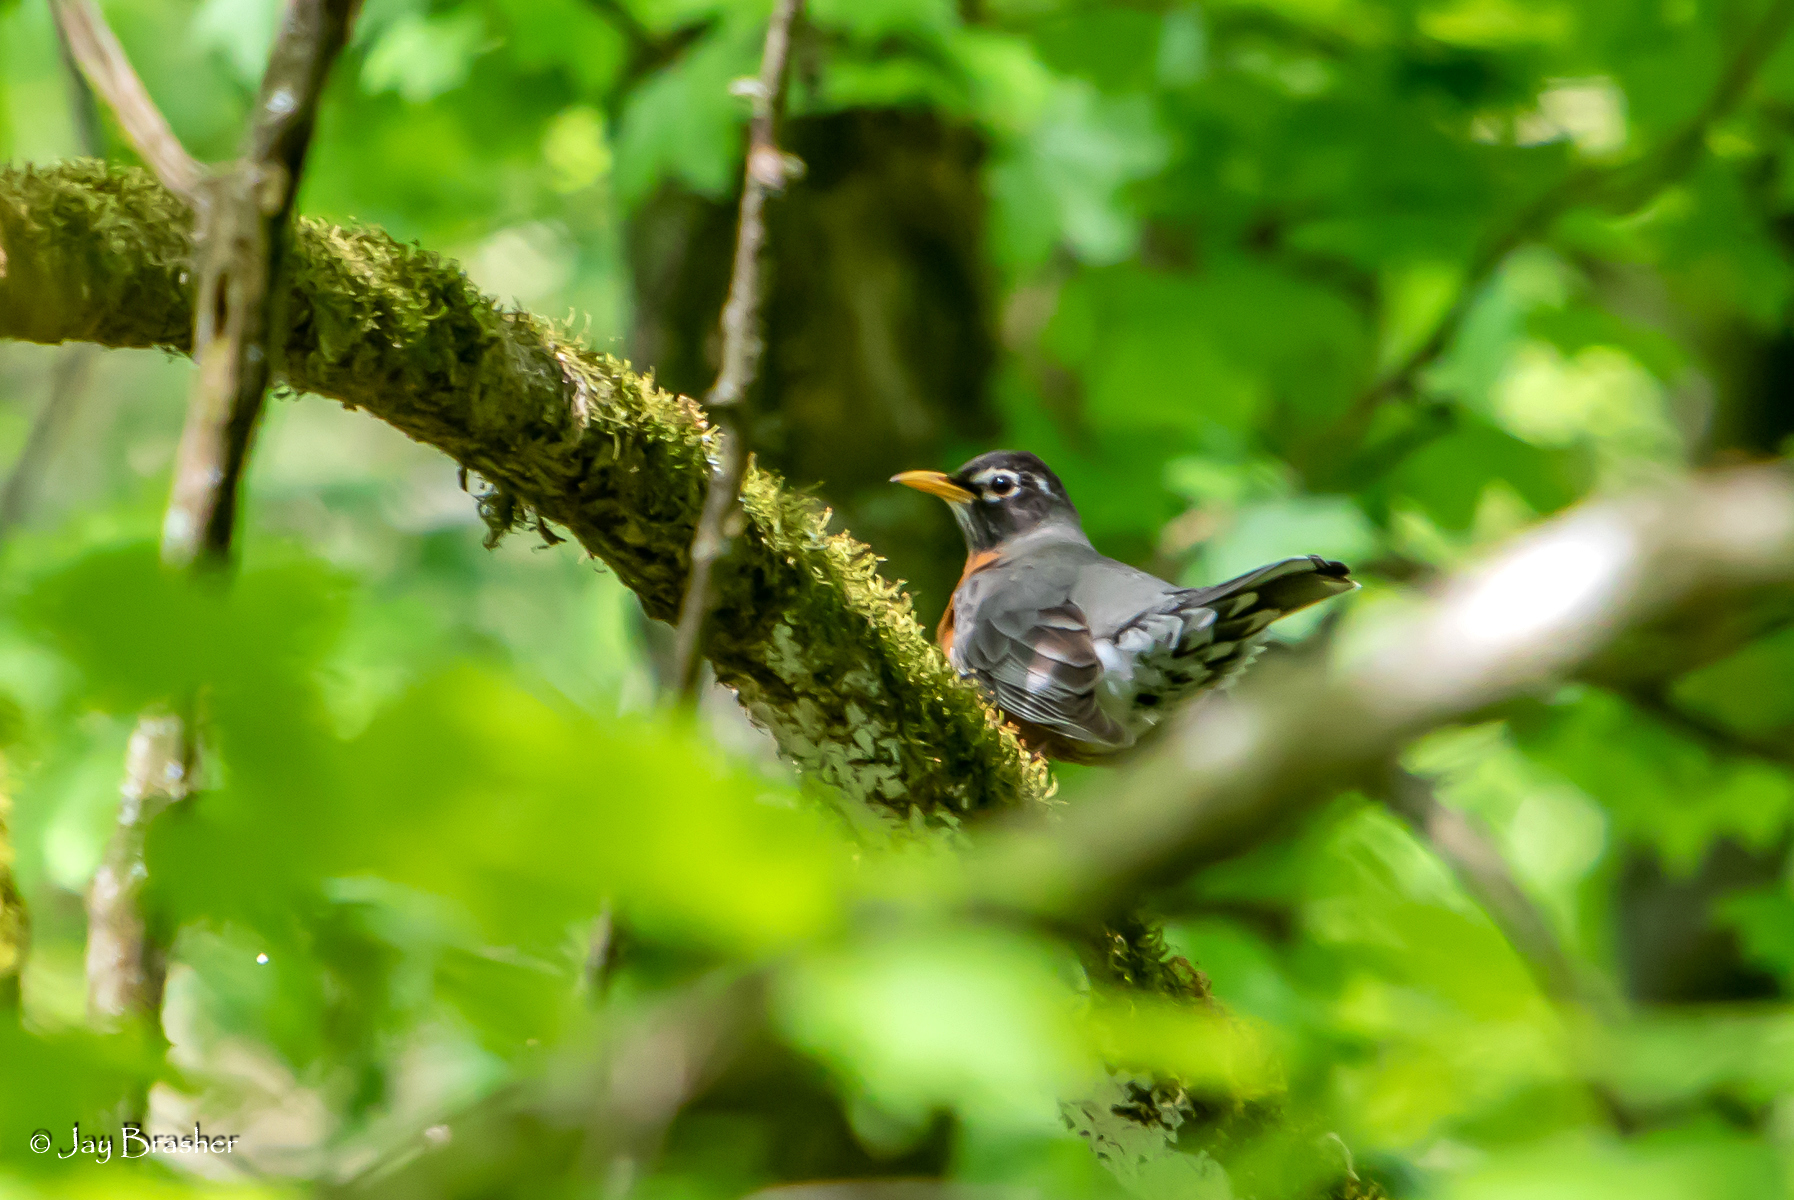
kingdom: Animalia
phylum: Chordata
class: Aves
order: Passeriformes
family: Turdidae
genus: Turdus
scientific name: Turdus migratorius
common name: American robin
